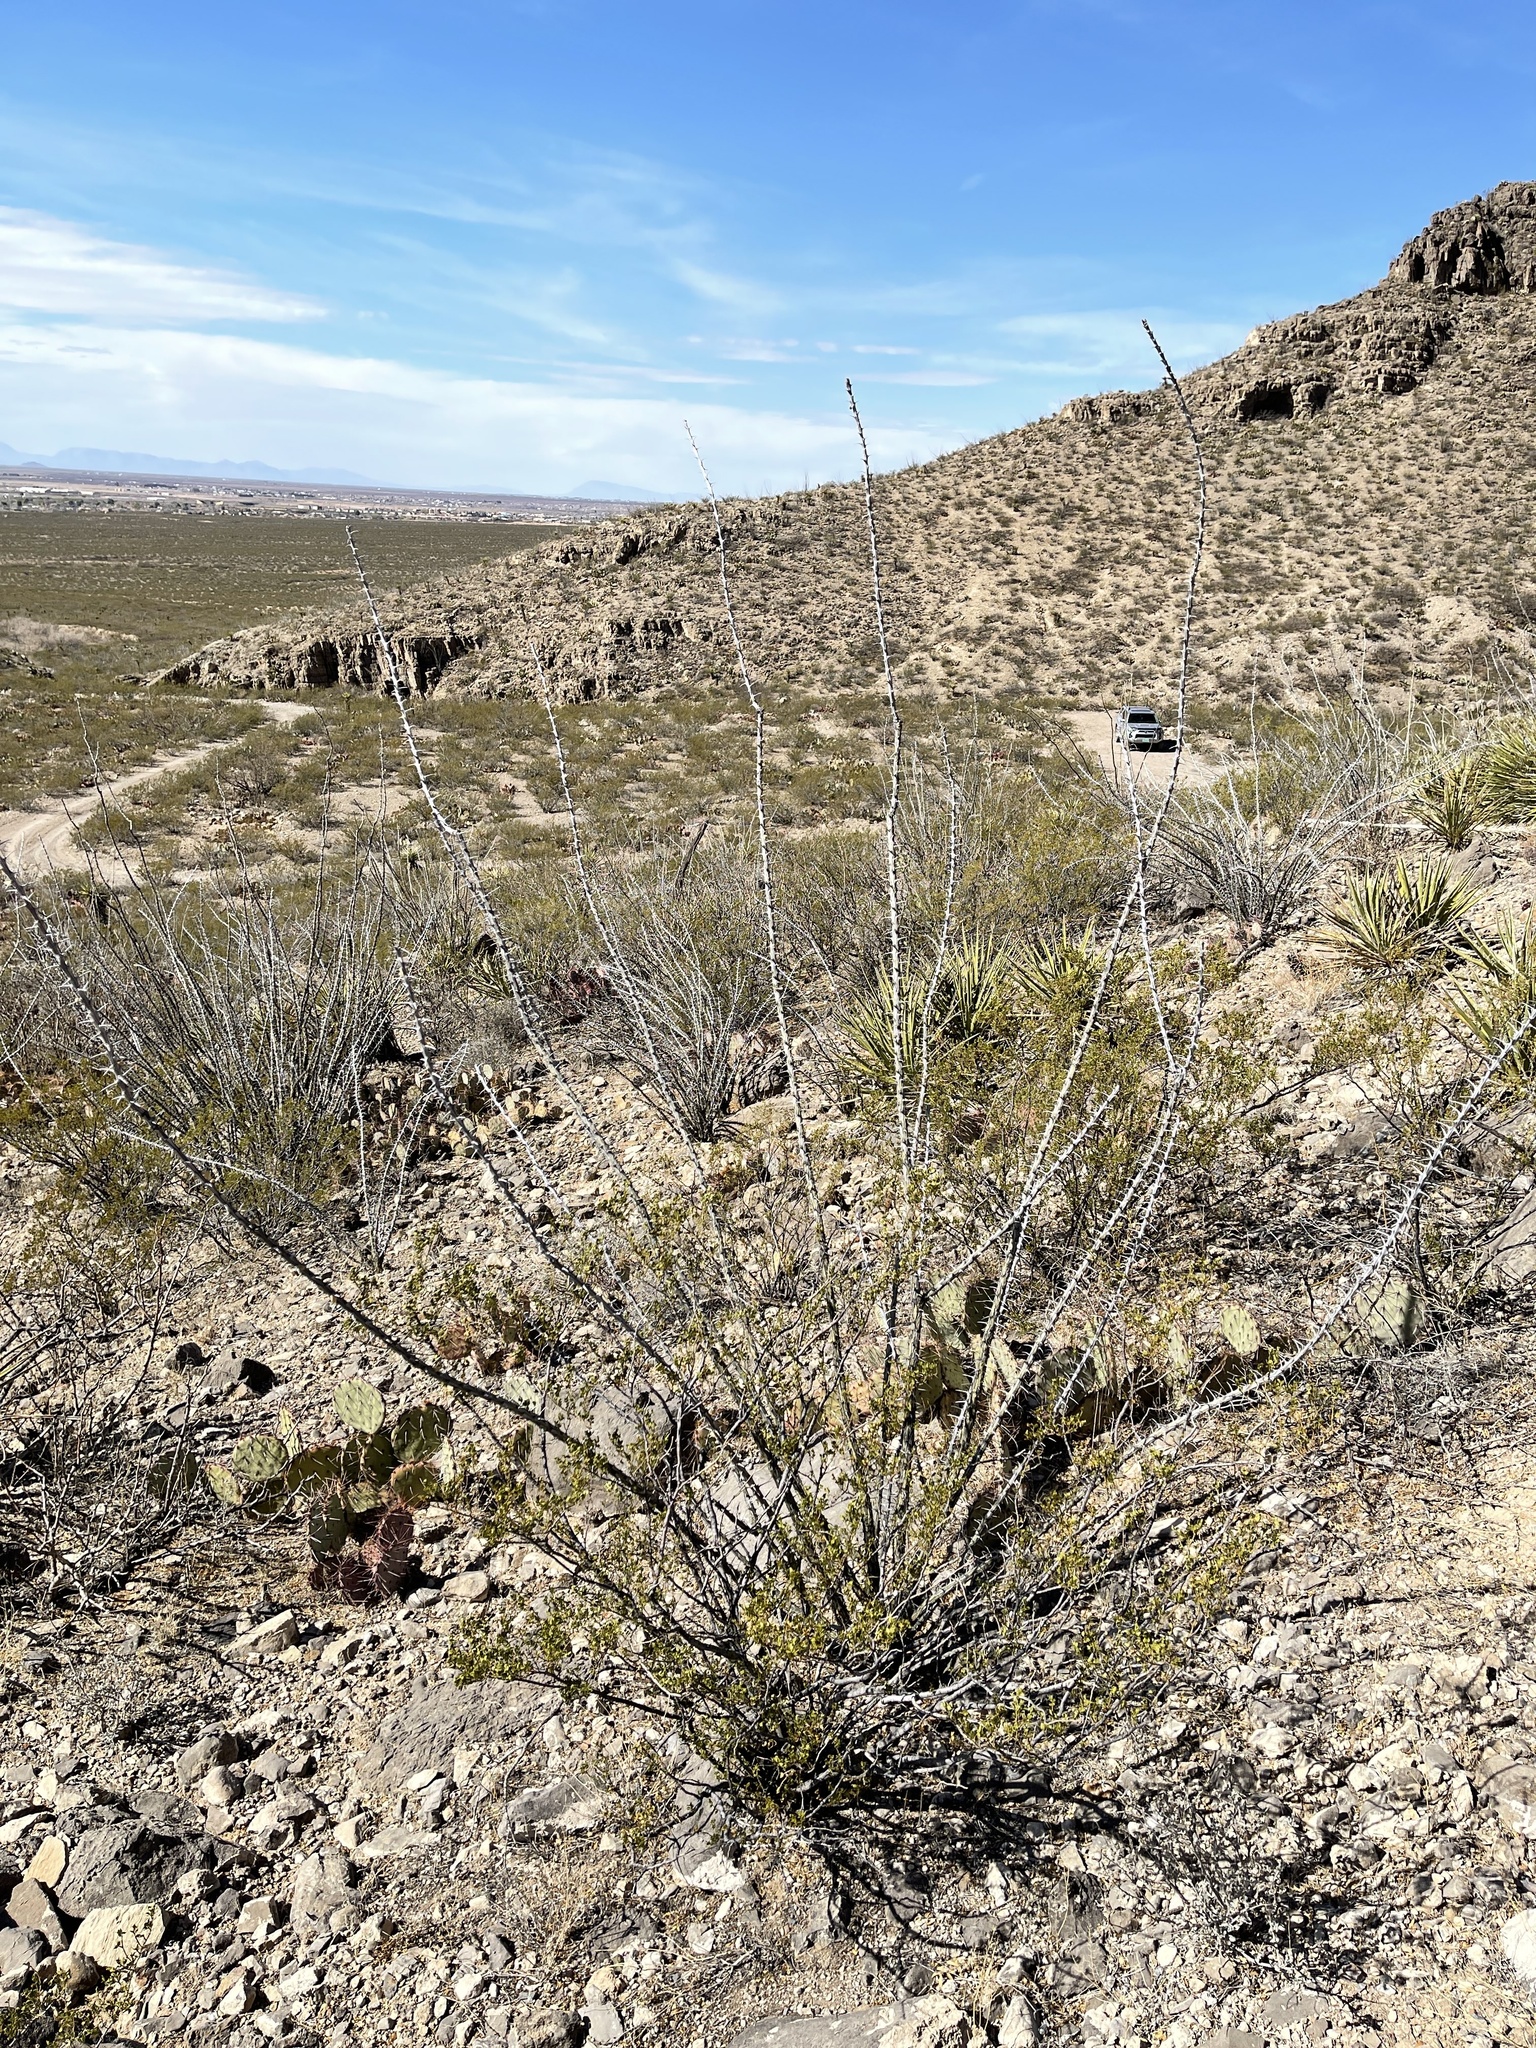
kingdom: Plantae
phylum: Tracheophyta
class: Magnoliopsida
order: Ericales
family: Fouquieriaceae
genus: Fouquieria
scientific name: Fouquieria splendens
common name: Vine-cactus
